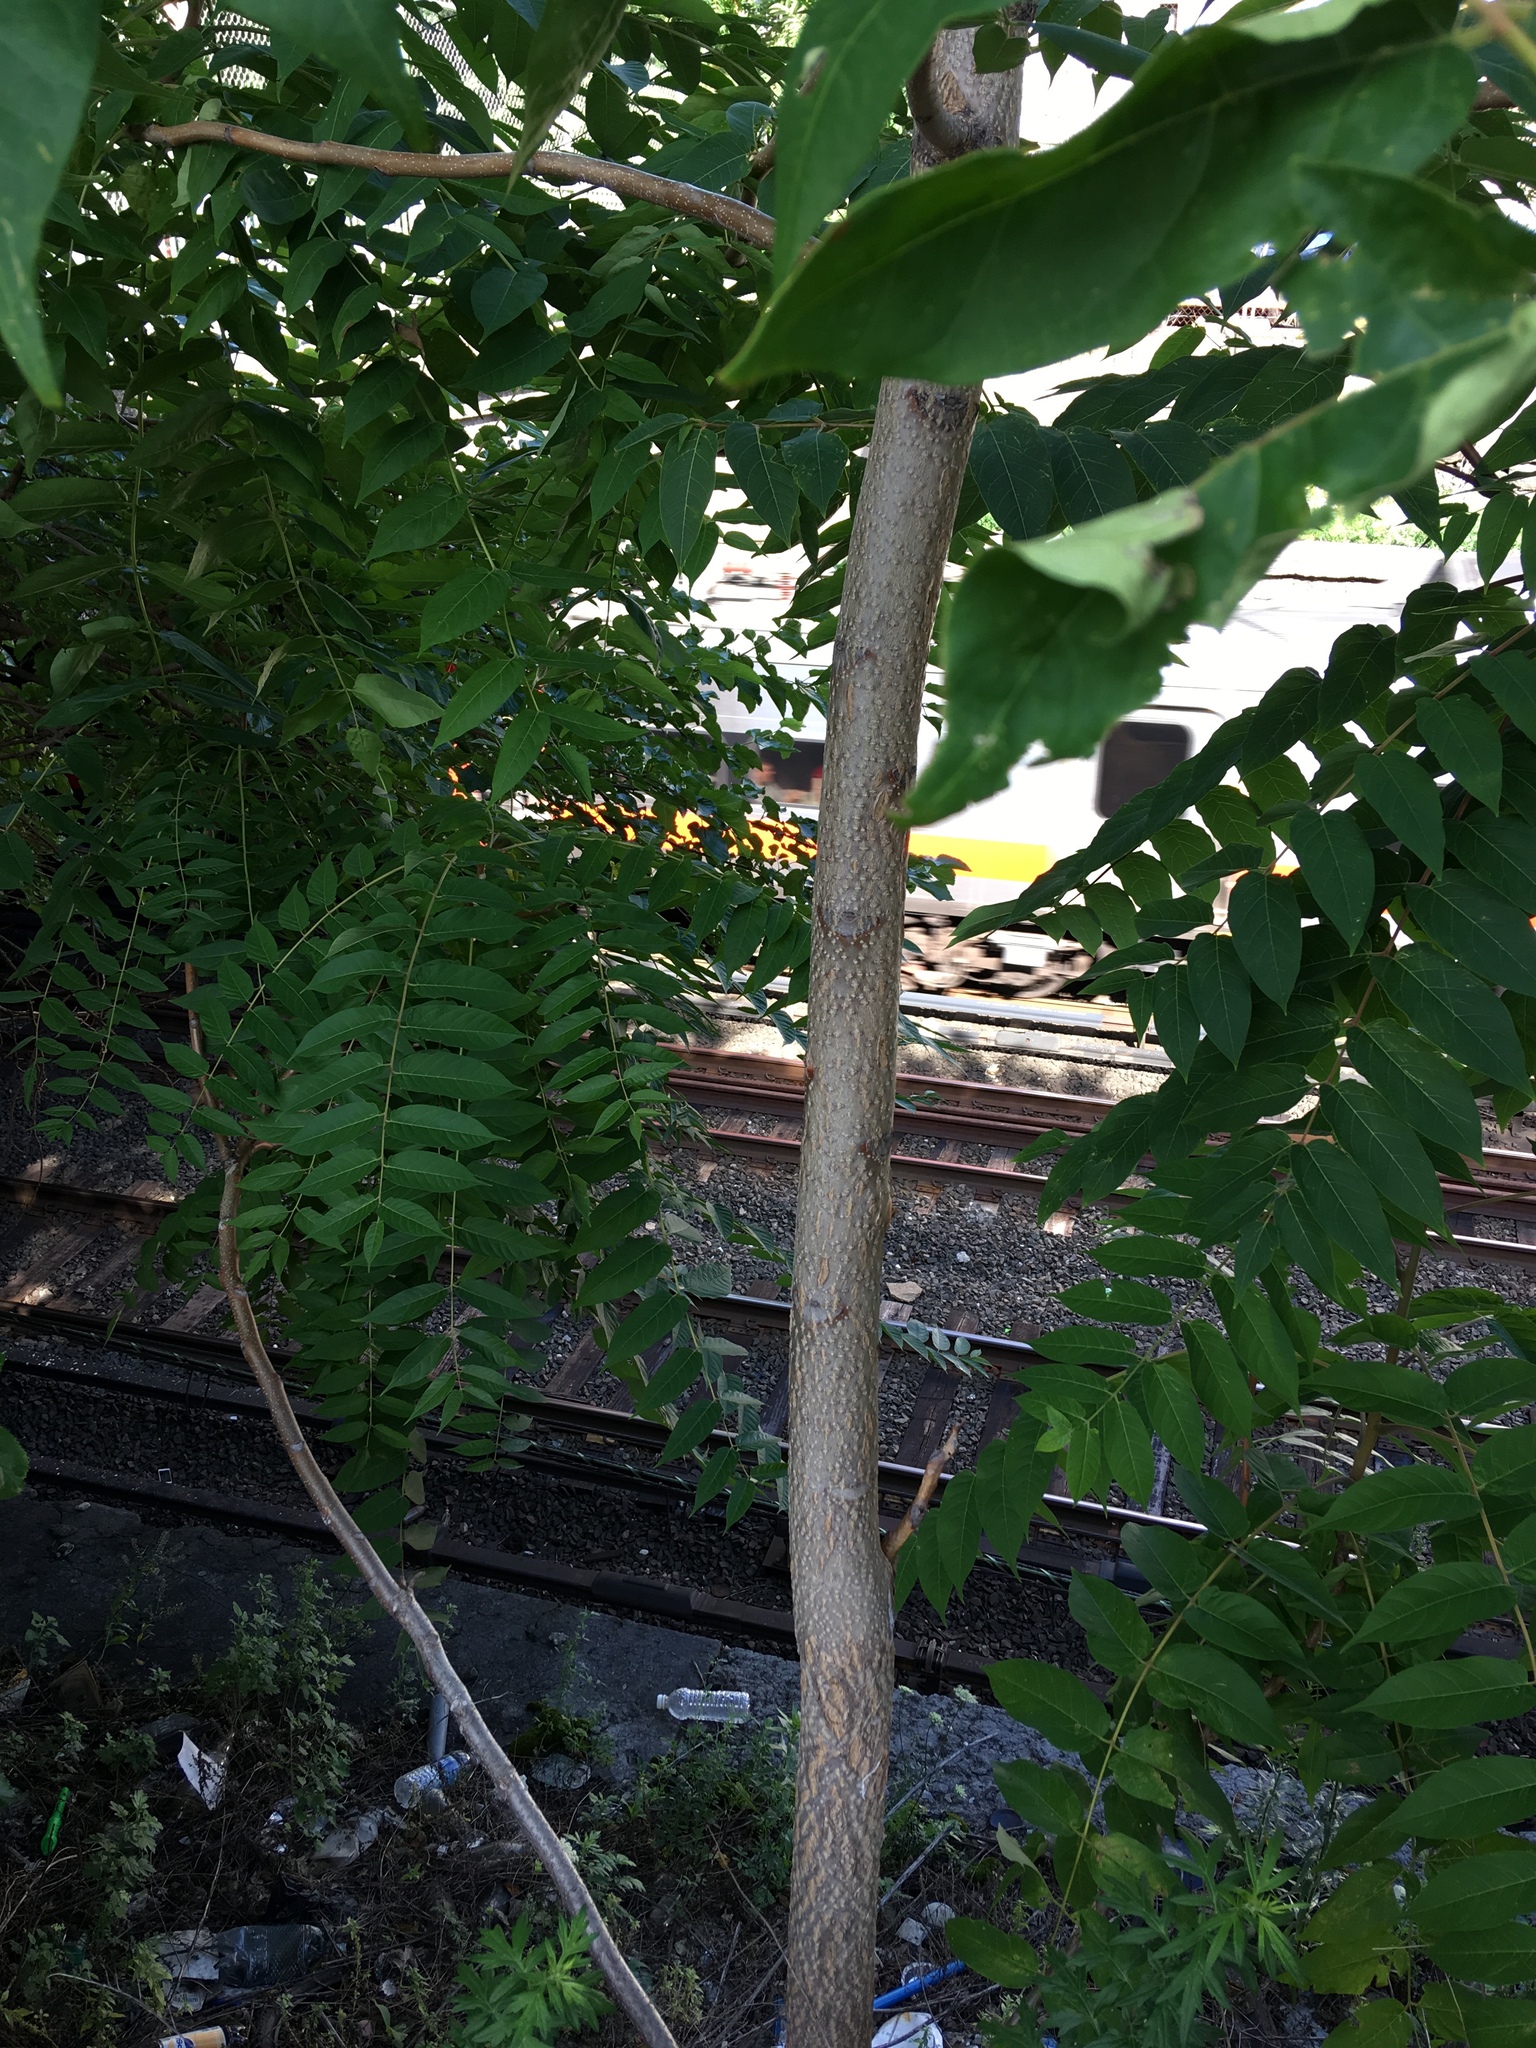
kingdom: Plantae
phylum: Tracheophyta
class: Magnoliopsida
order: Sapindales
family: Simaroubaceae
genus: Ailanthus
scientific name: Ailanthus altissima
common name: Tree-of-heaven
